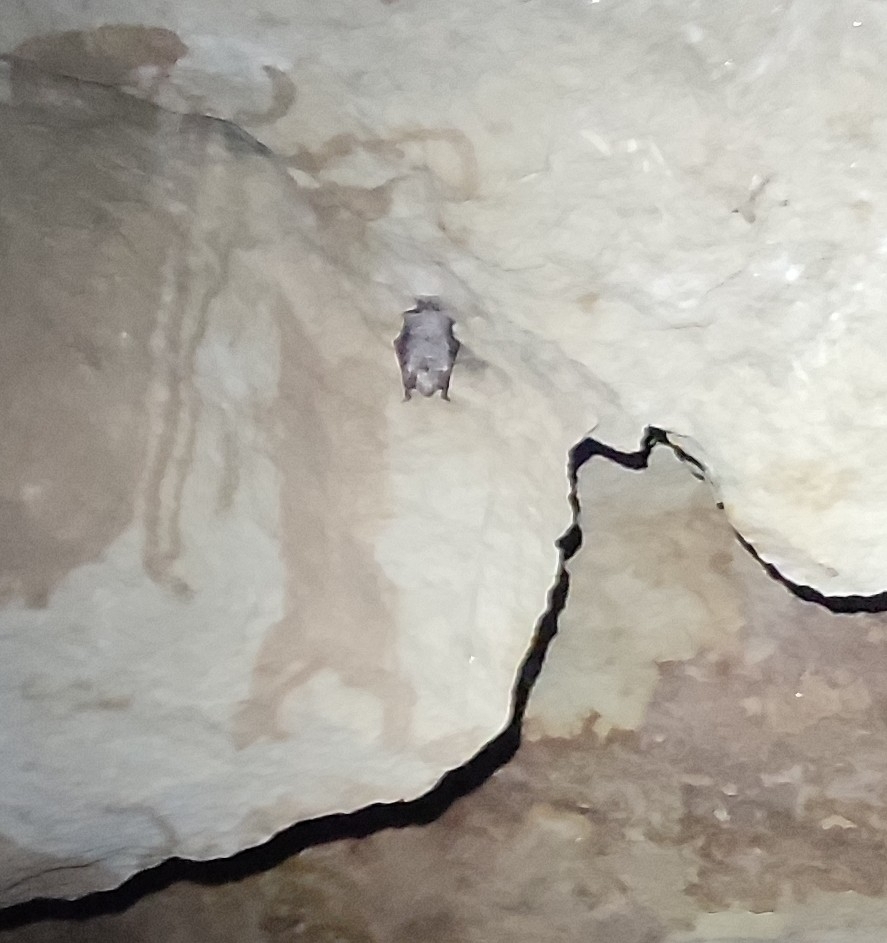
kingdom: Animalia
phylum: Chordata
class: Mammalia
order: Chiroptera
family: Vespertilionidae
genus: Myotis
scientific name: Myotis myotis
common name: Greater mouse-eared bat
